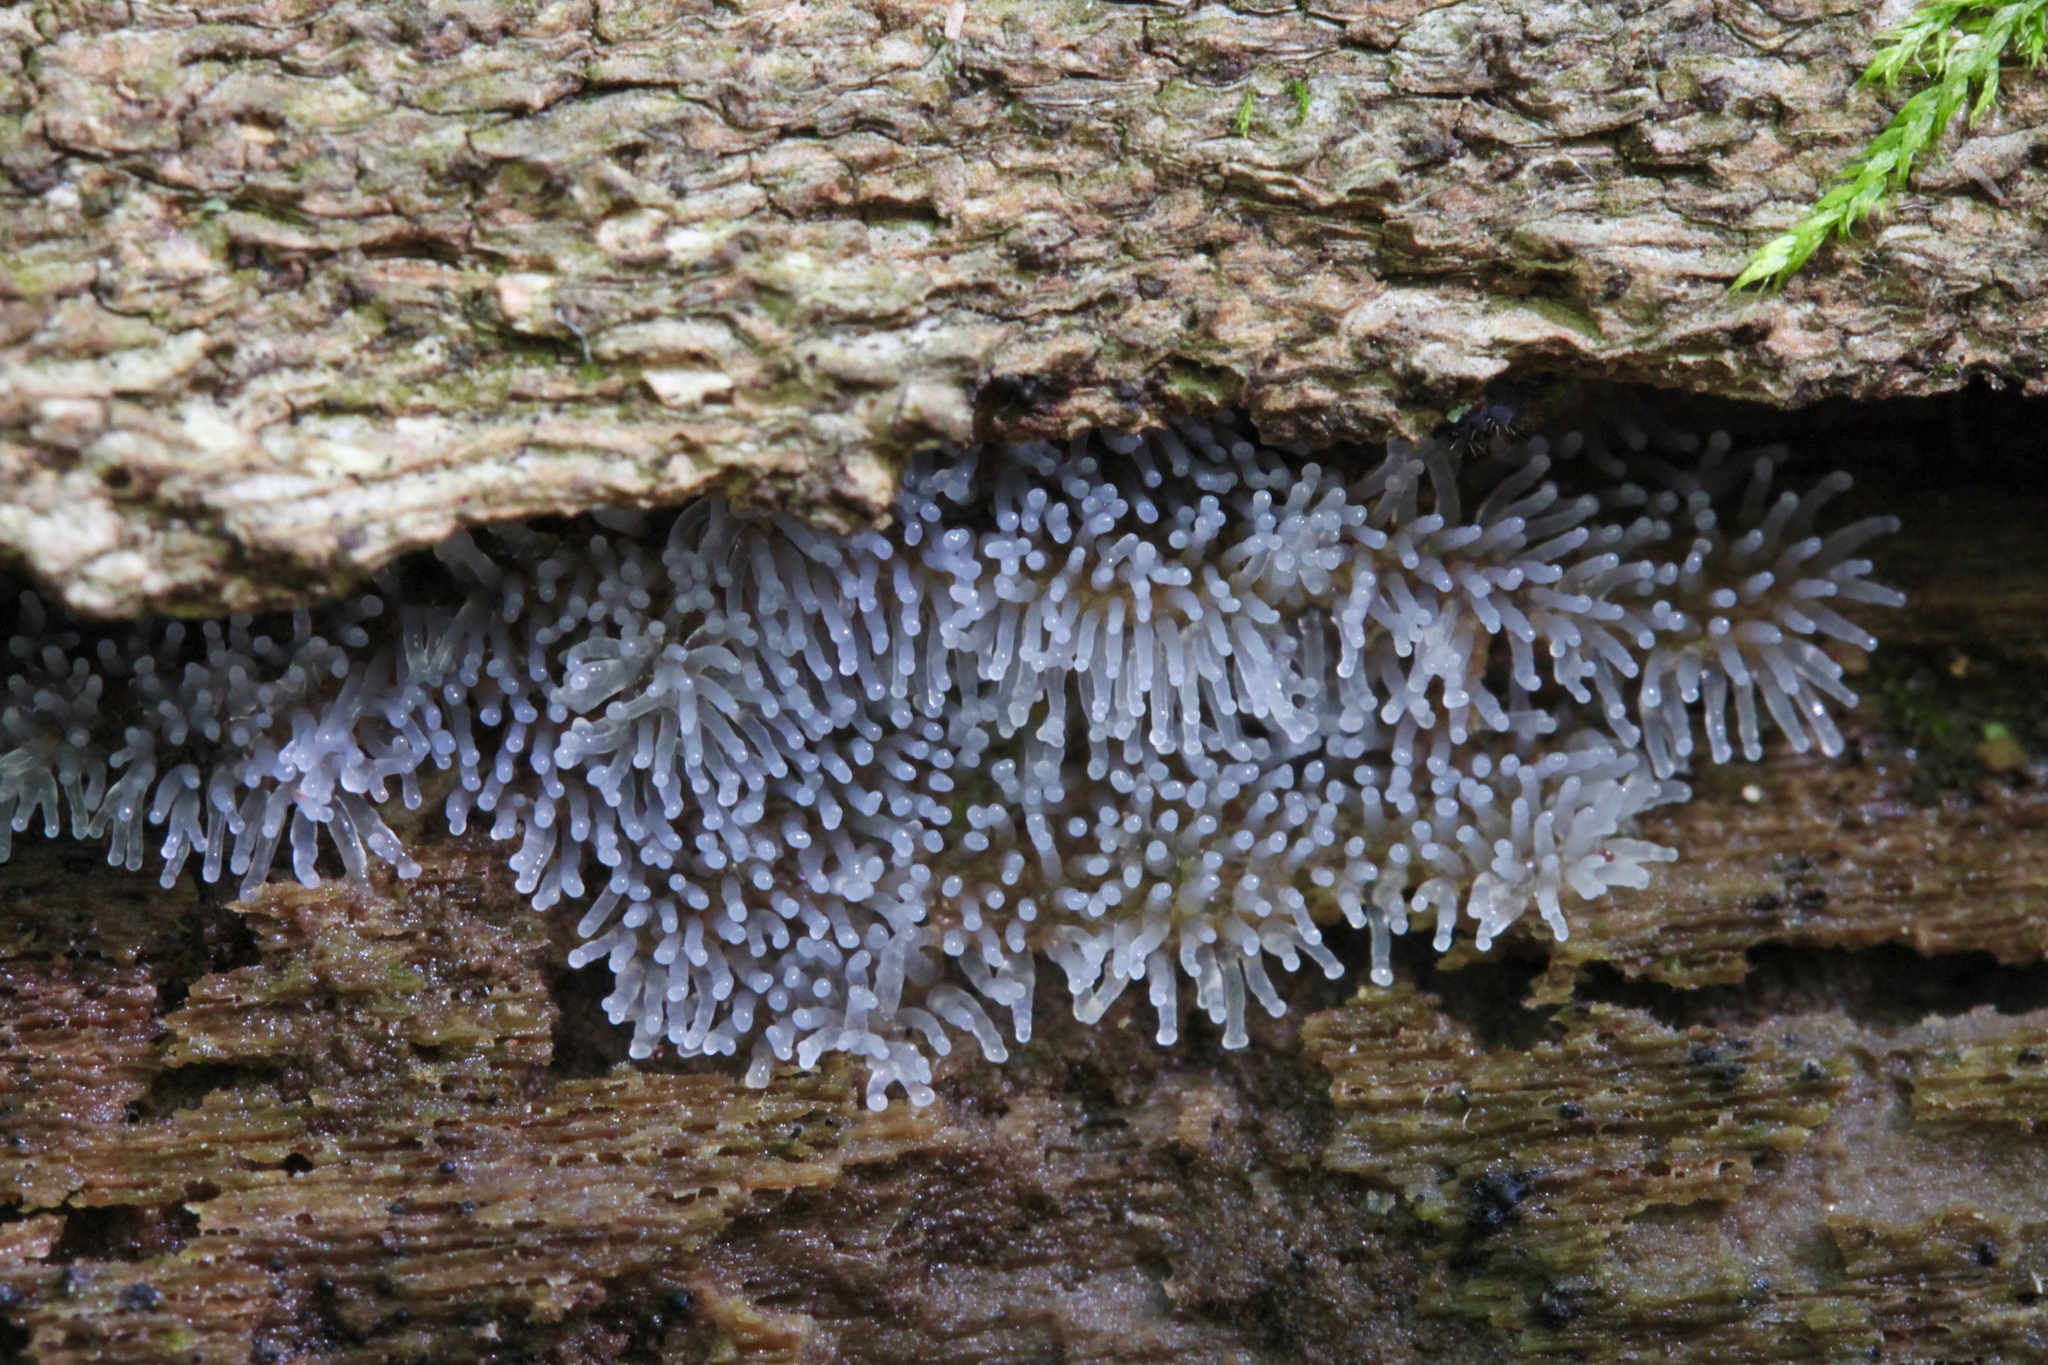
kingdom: Protozoa
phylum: Mycetozoa
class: Protosteliomycetes
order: Ceratiomyxales
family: Ceratiomyxaceae
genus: Ceratiomyxa
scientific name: Ceratiomyxa fruticulosa
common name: Honeycomb coral slime mold
